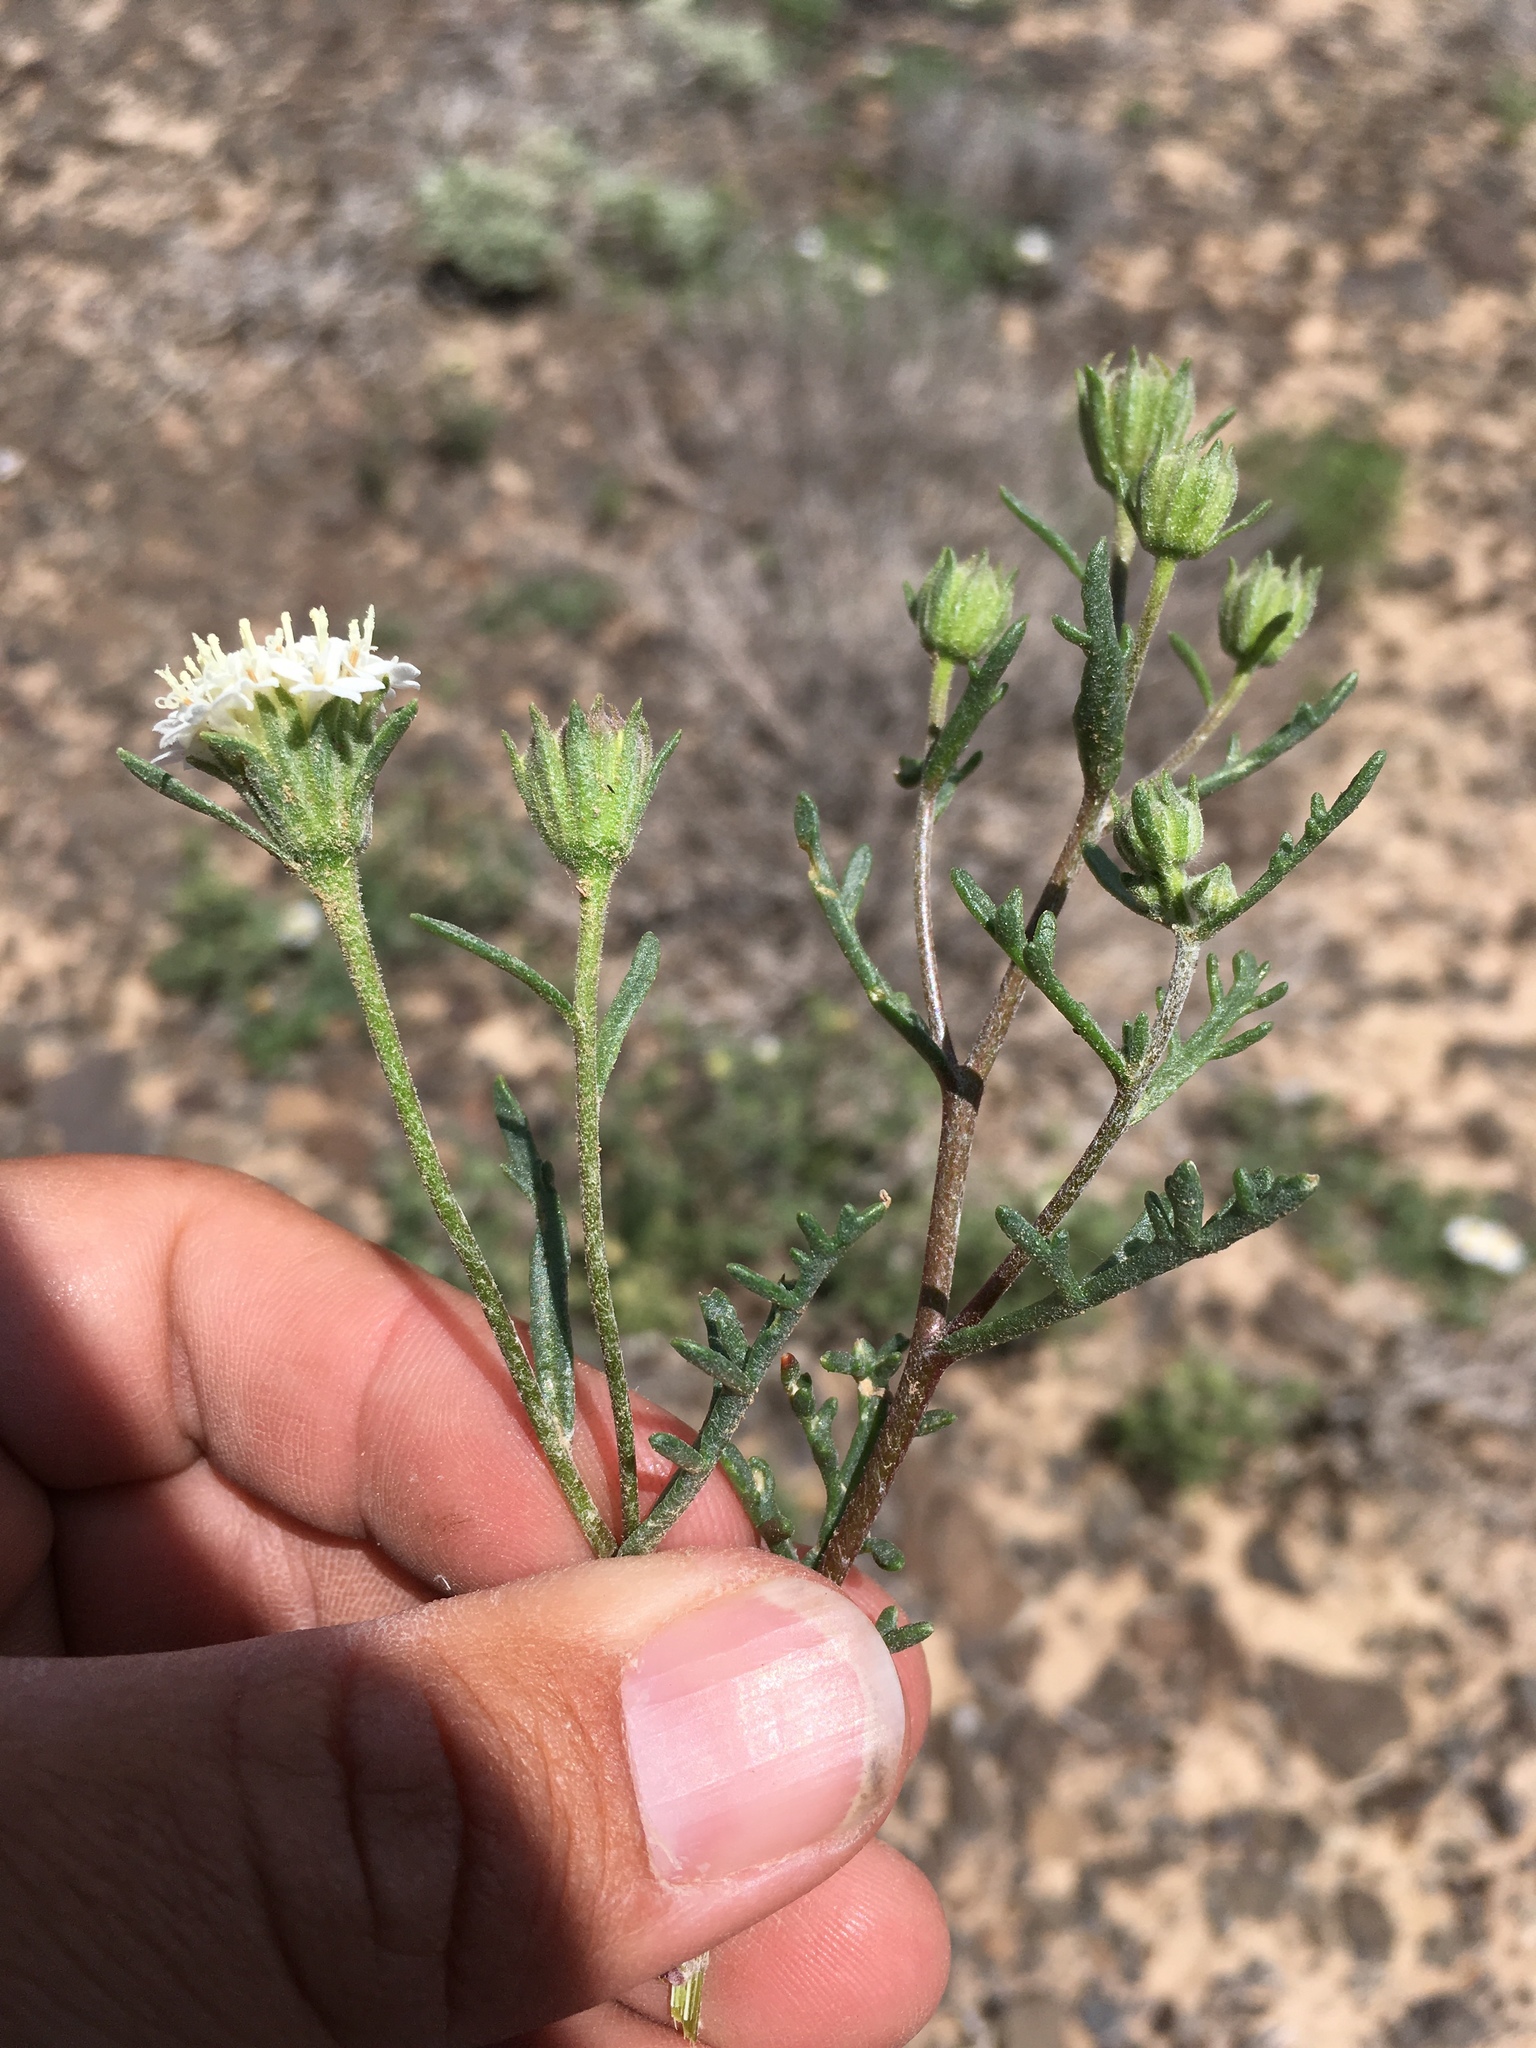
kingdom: Plantae
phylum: Tracheophyta
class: Magnoliopsida
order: Asterales
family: Asteraceae
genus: Chaenactis
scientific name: Chaenactis stevioides
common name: Desert pincushion
